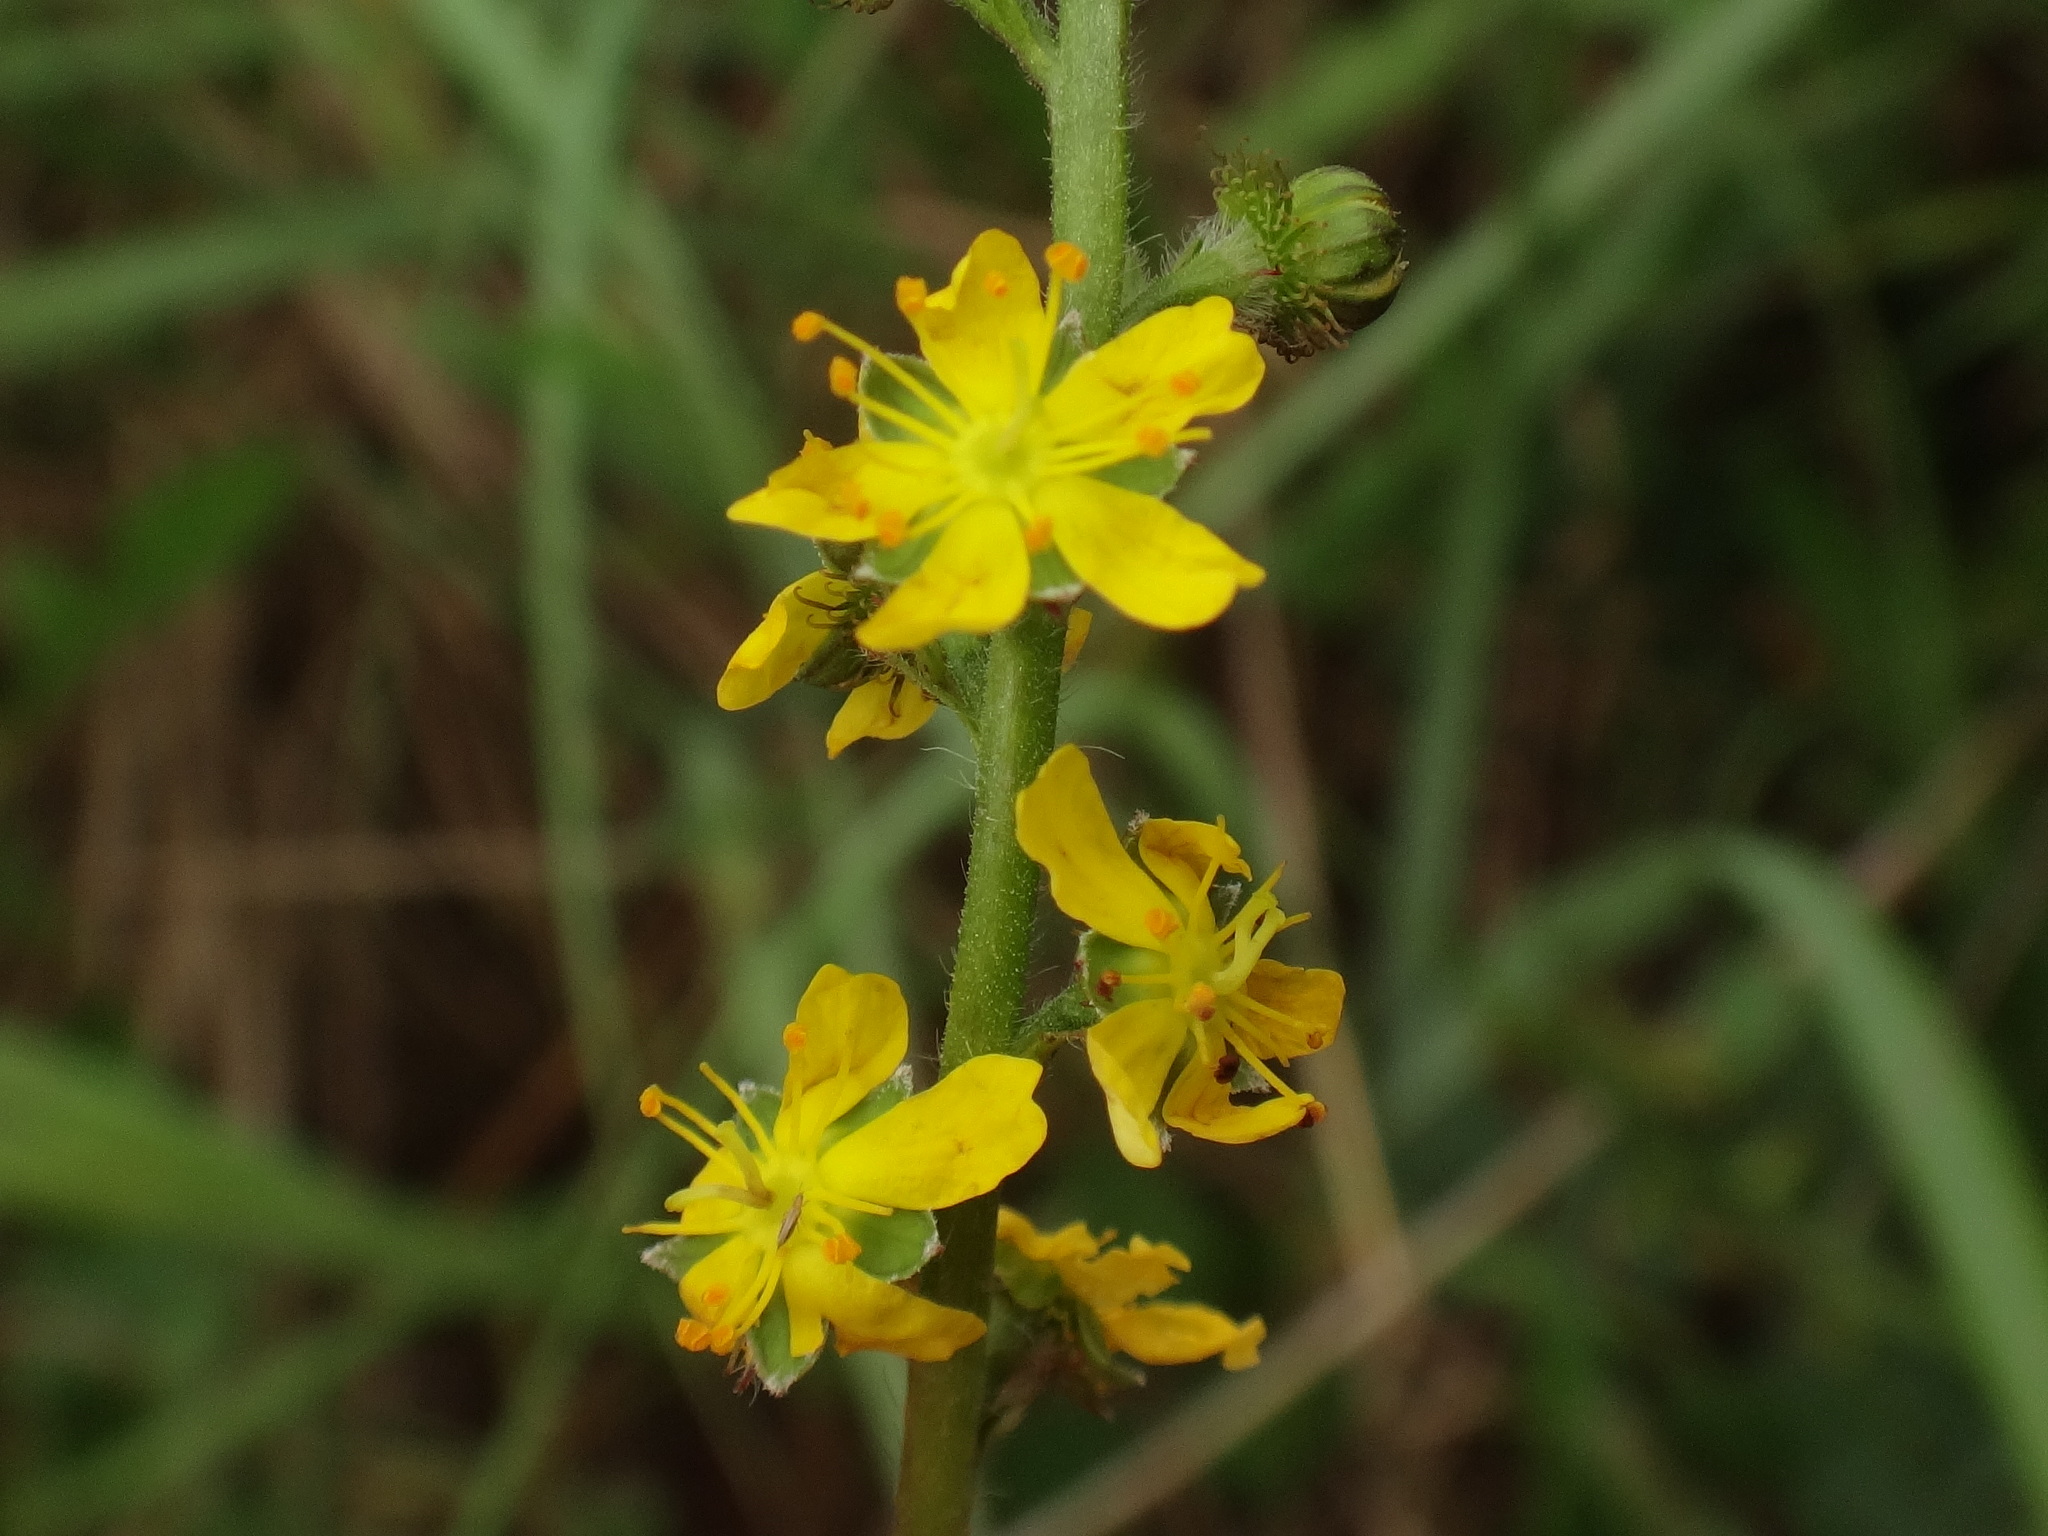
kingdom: Plantae
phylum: Tracheophyta
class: Magnoliopsida
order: Rosales
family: Rosaceae
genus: Agrimonia
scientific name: Agrimonia eupatoria
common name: Agrimony
